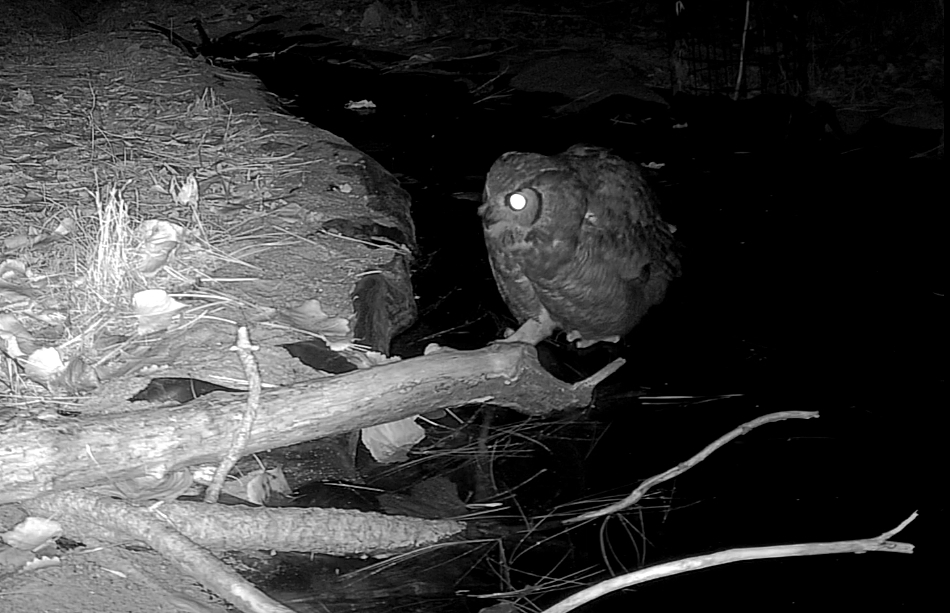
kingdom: Animalia
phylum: Chordata
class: Aves
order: Strigiformes
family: Strigidae
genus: Bubo
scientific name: Bubo virginianus
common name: Great horned owl
